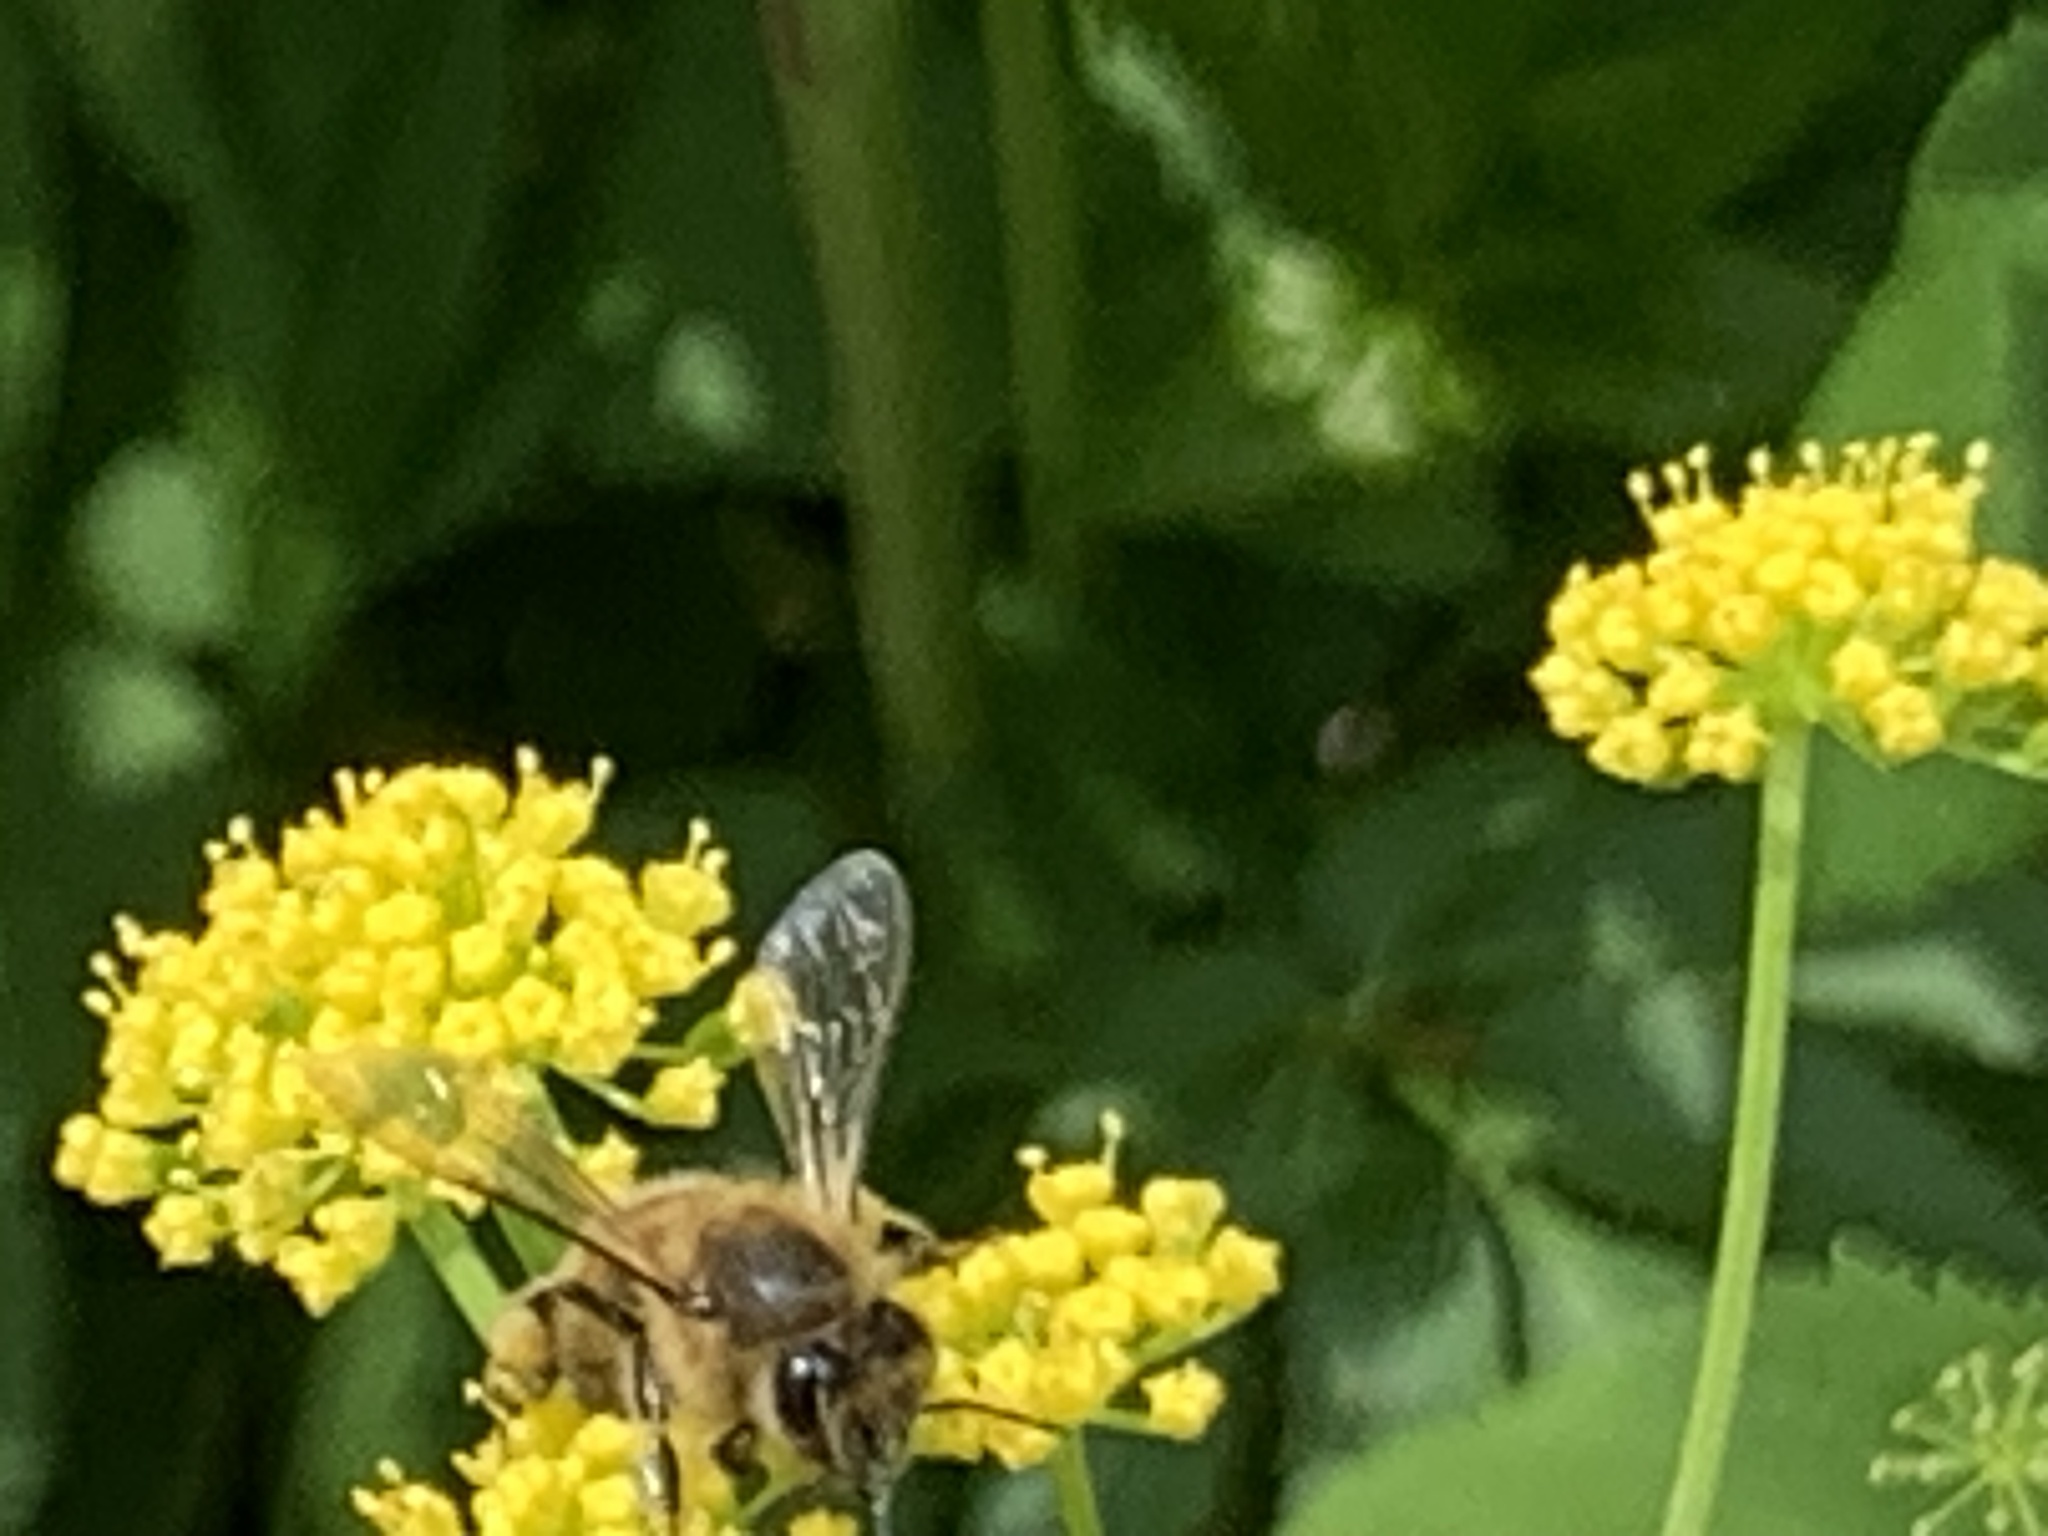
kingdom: Animalia
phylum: Arthropoda
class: Insecta
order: Hymenoptera
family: Apidae
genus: Apis
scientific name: Apis mellifera
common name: Honey bee
